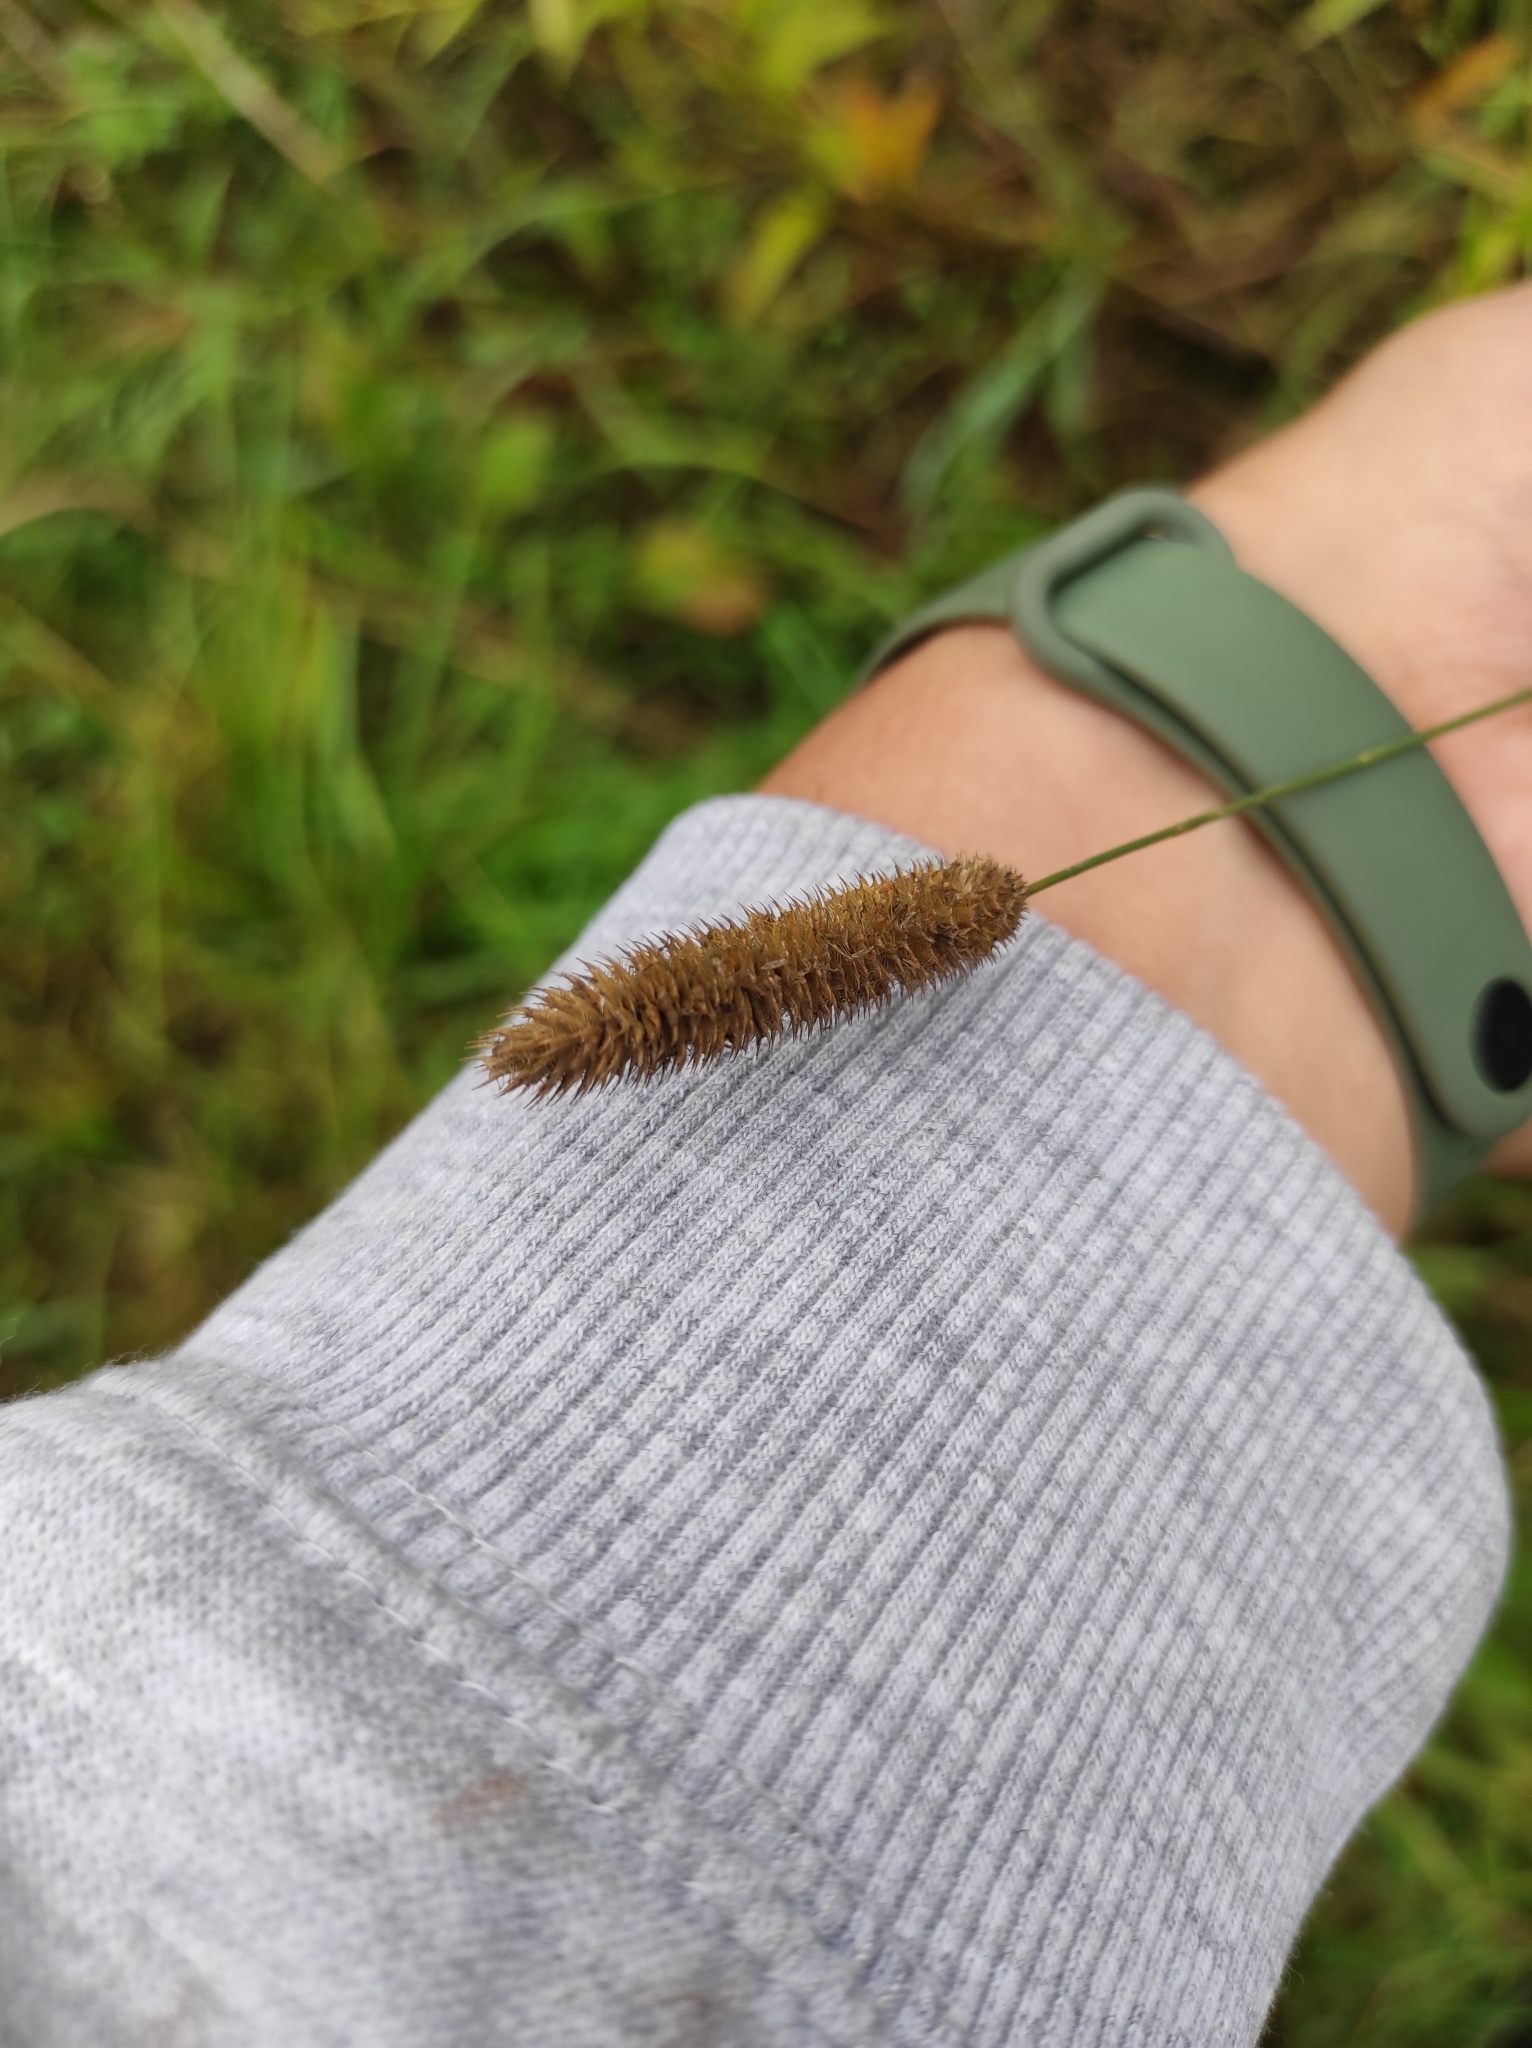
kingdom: Plantae
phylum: Tracheophyta
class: Liliopsida
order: Poales
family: Poaceae
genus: Phleum
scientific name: Phleum pratense
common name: Timothy grass
